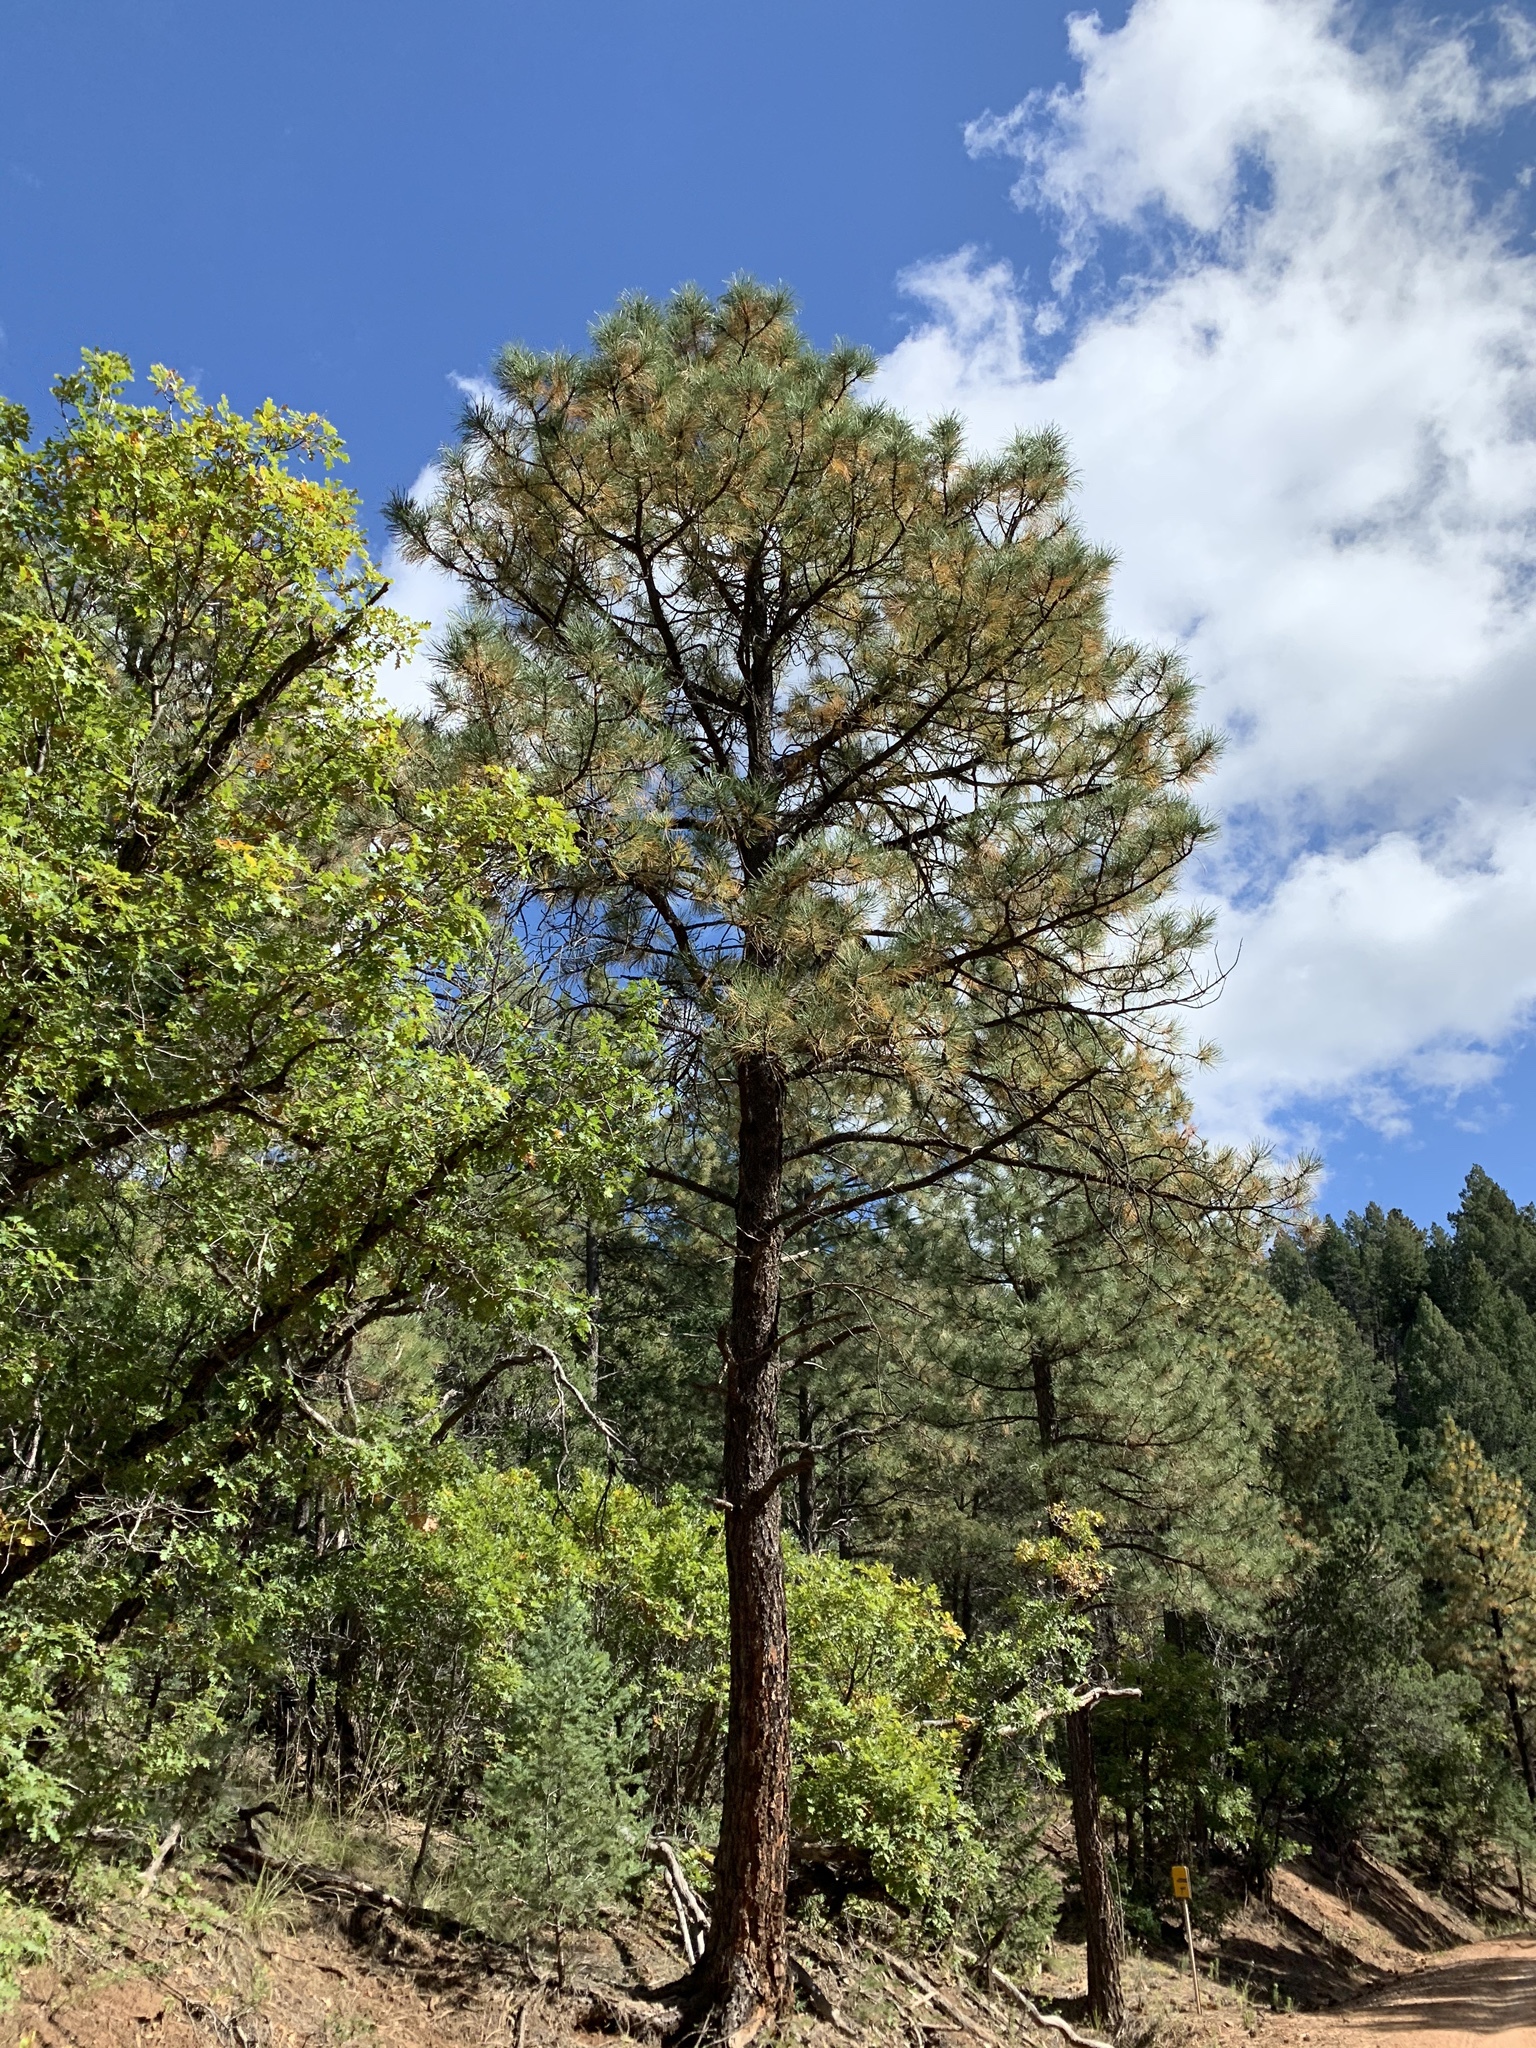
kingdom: Plantae
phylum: Tracheophyta
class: Pinopsida
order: Pinales
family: Pinaceae
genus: Pinus
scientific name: Pinus ponderosa
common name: Western yellow-pine
